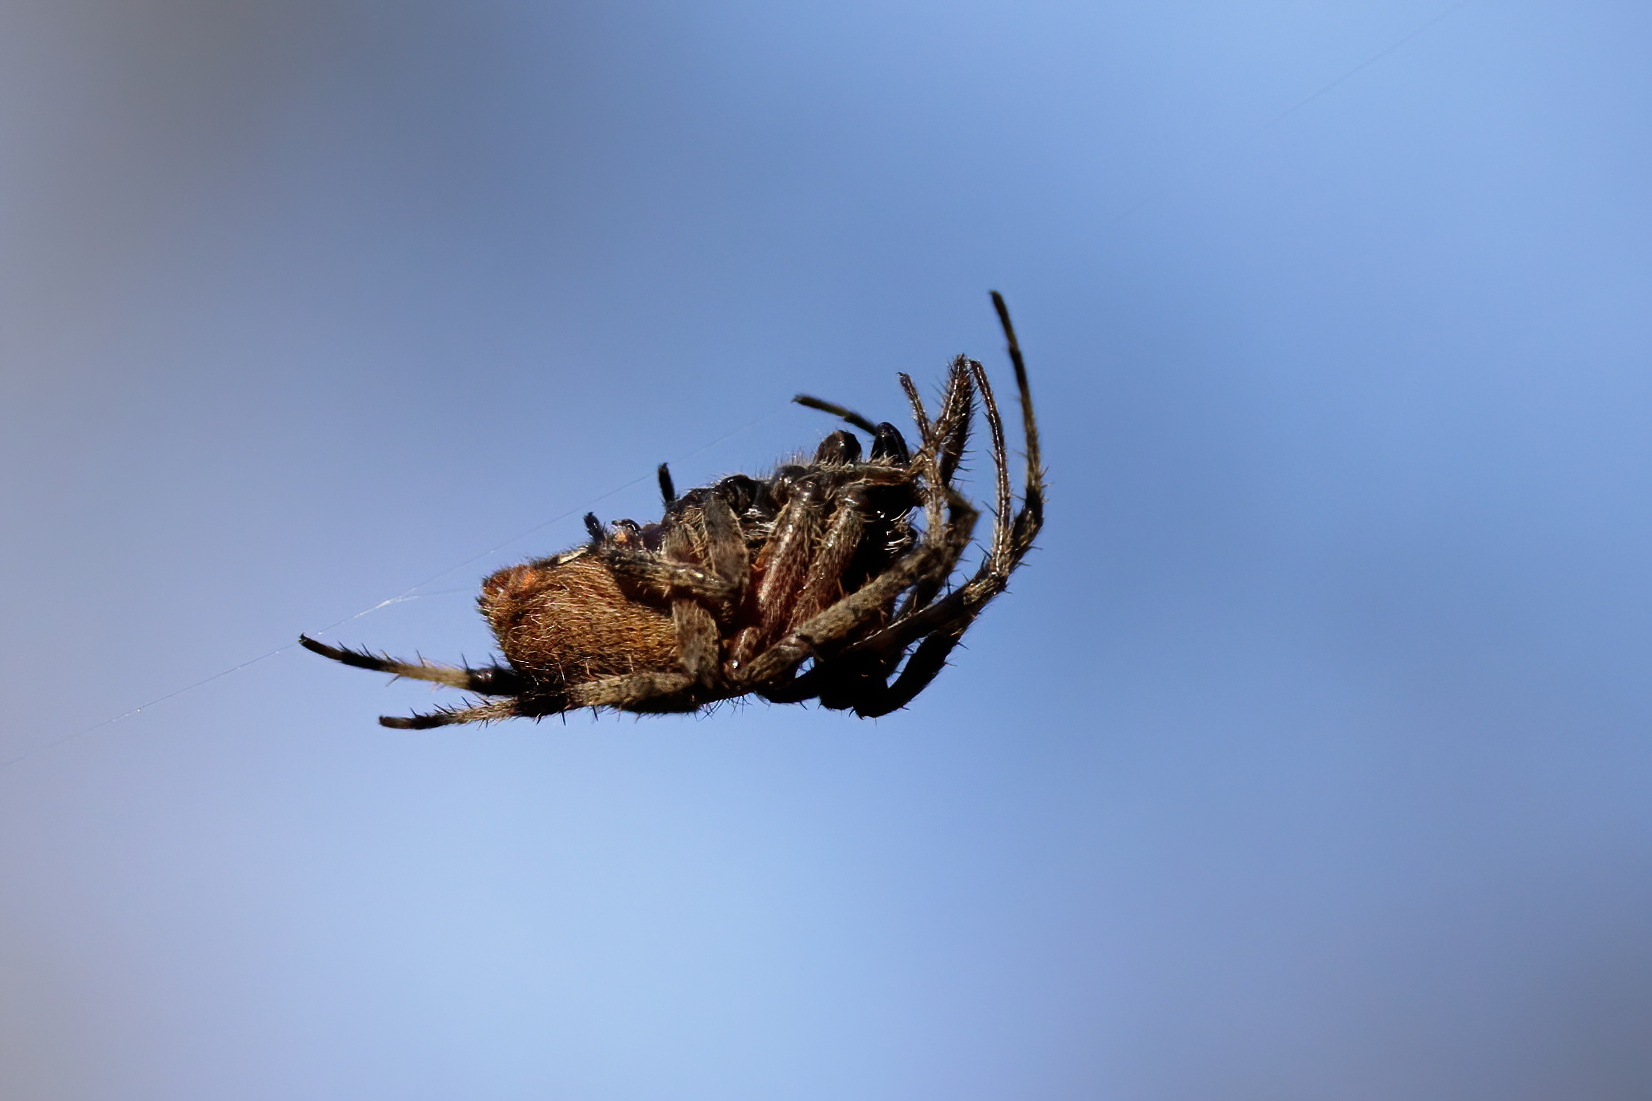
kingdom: Animalia
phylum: Arthropoda
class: Arachnida
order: Araneae
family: Araneidae
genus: Neoscona
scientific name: Neoscona crucifera
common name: Spotted orbweaver
